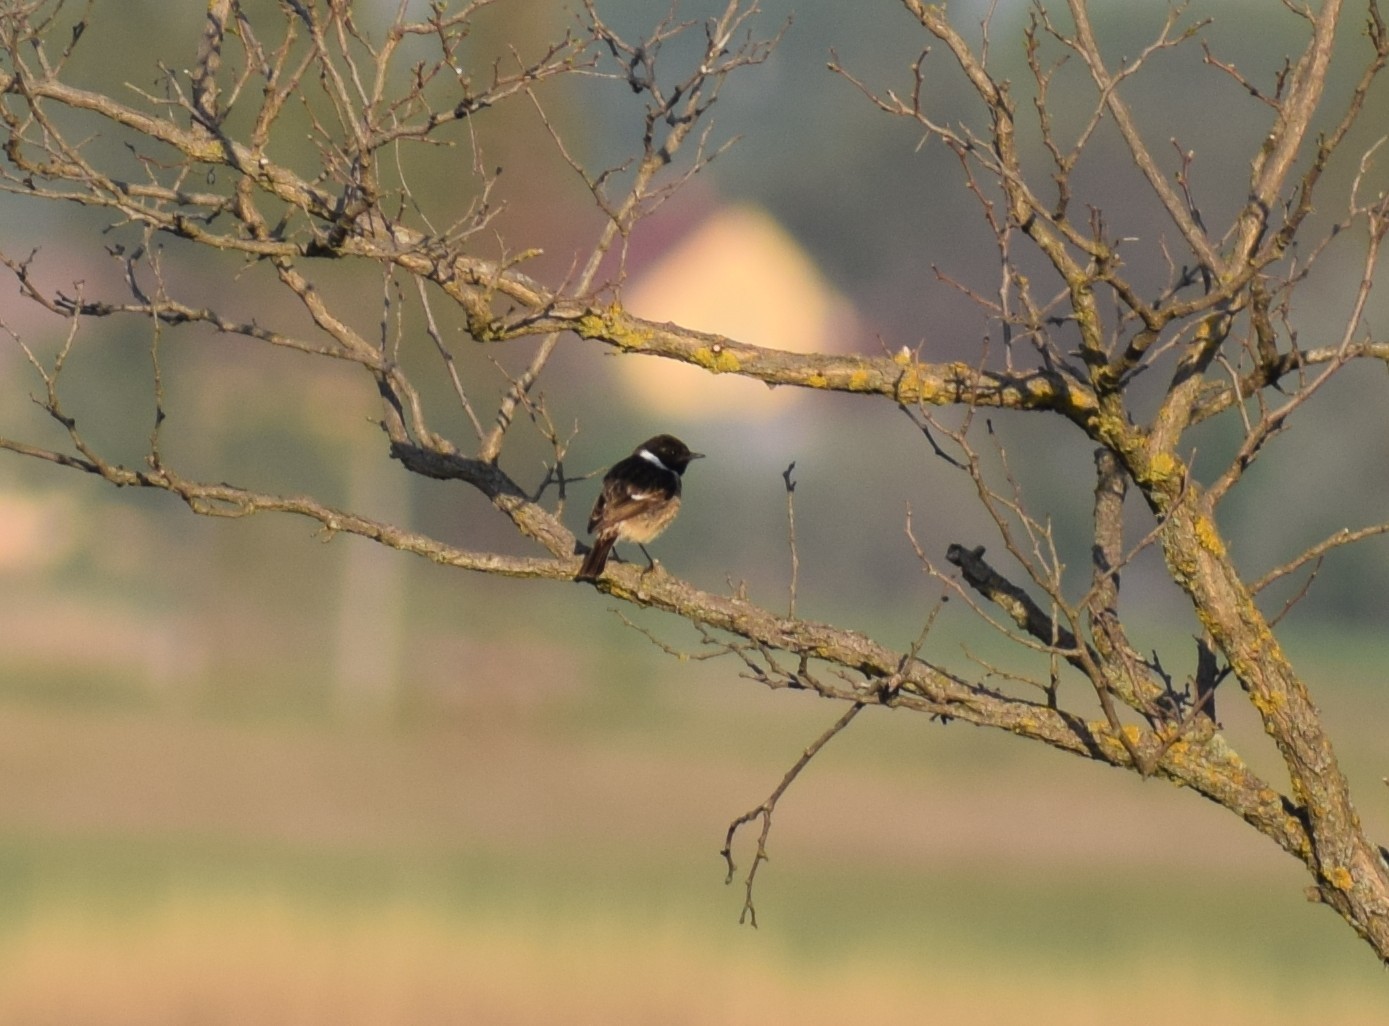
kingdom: Animalia
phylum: Chordata
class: Aves
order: Passeriformes
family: Muscicapidae
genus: Saxicola
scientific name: Saxicola rubicola
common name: European stonechat
